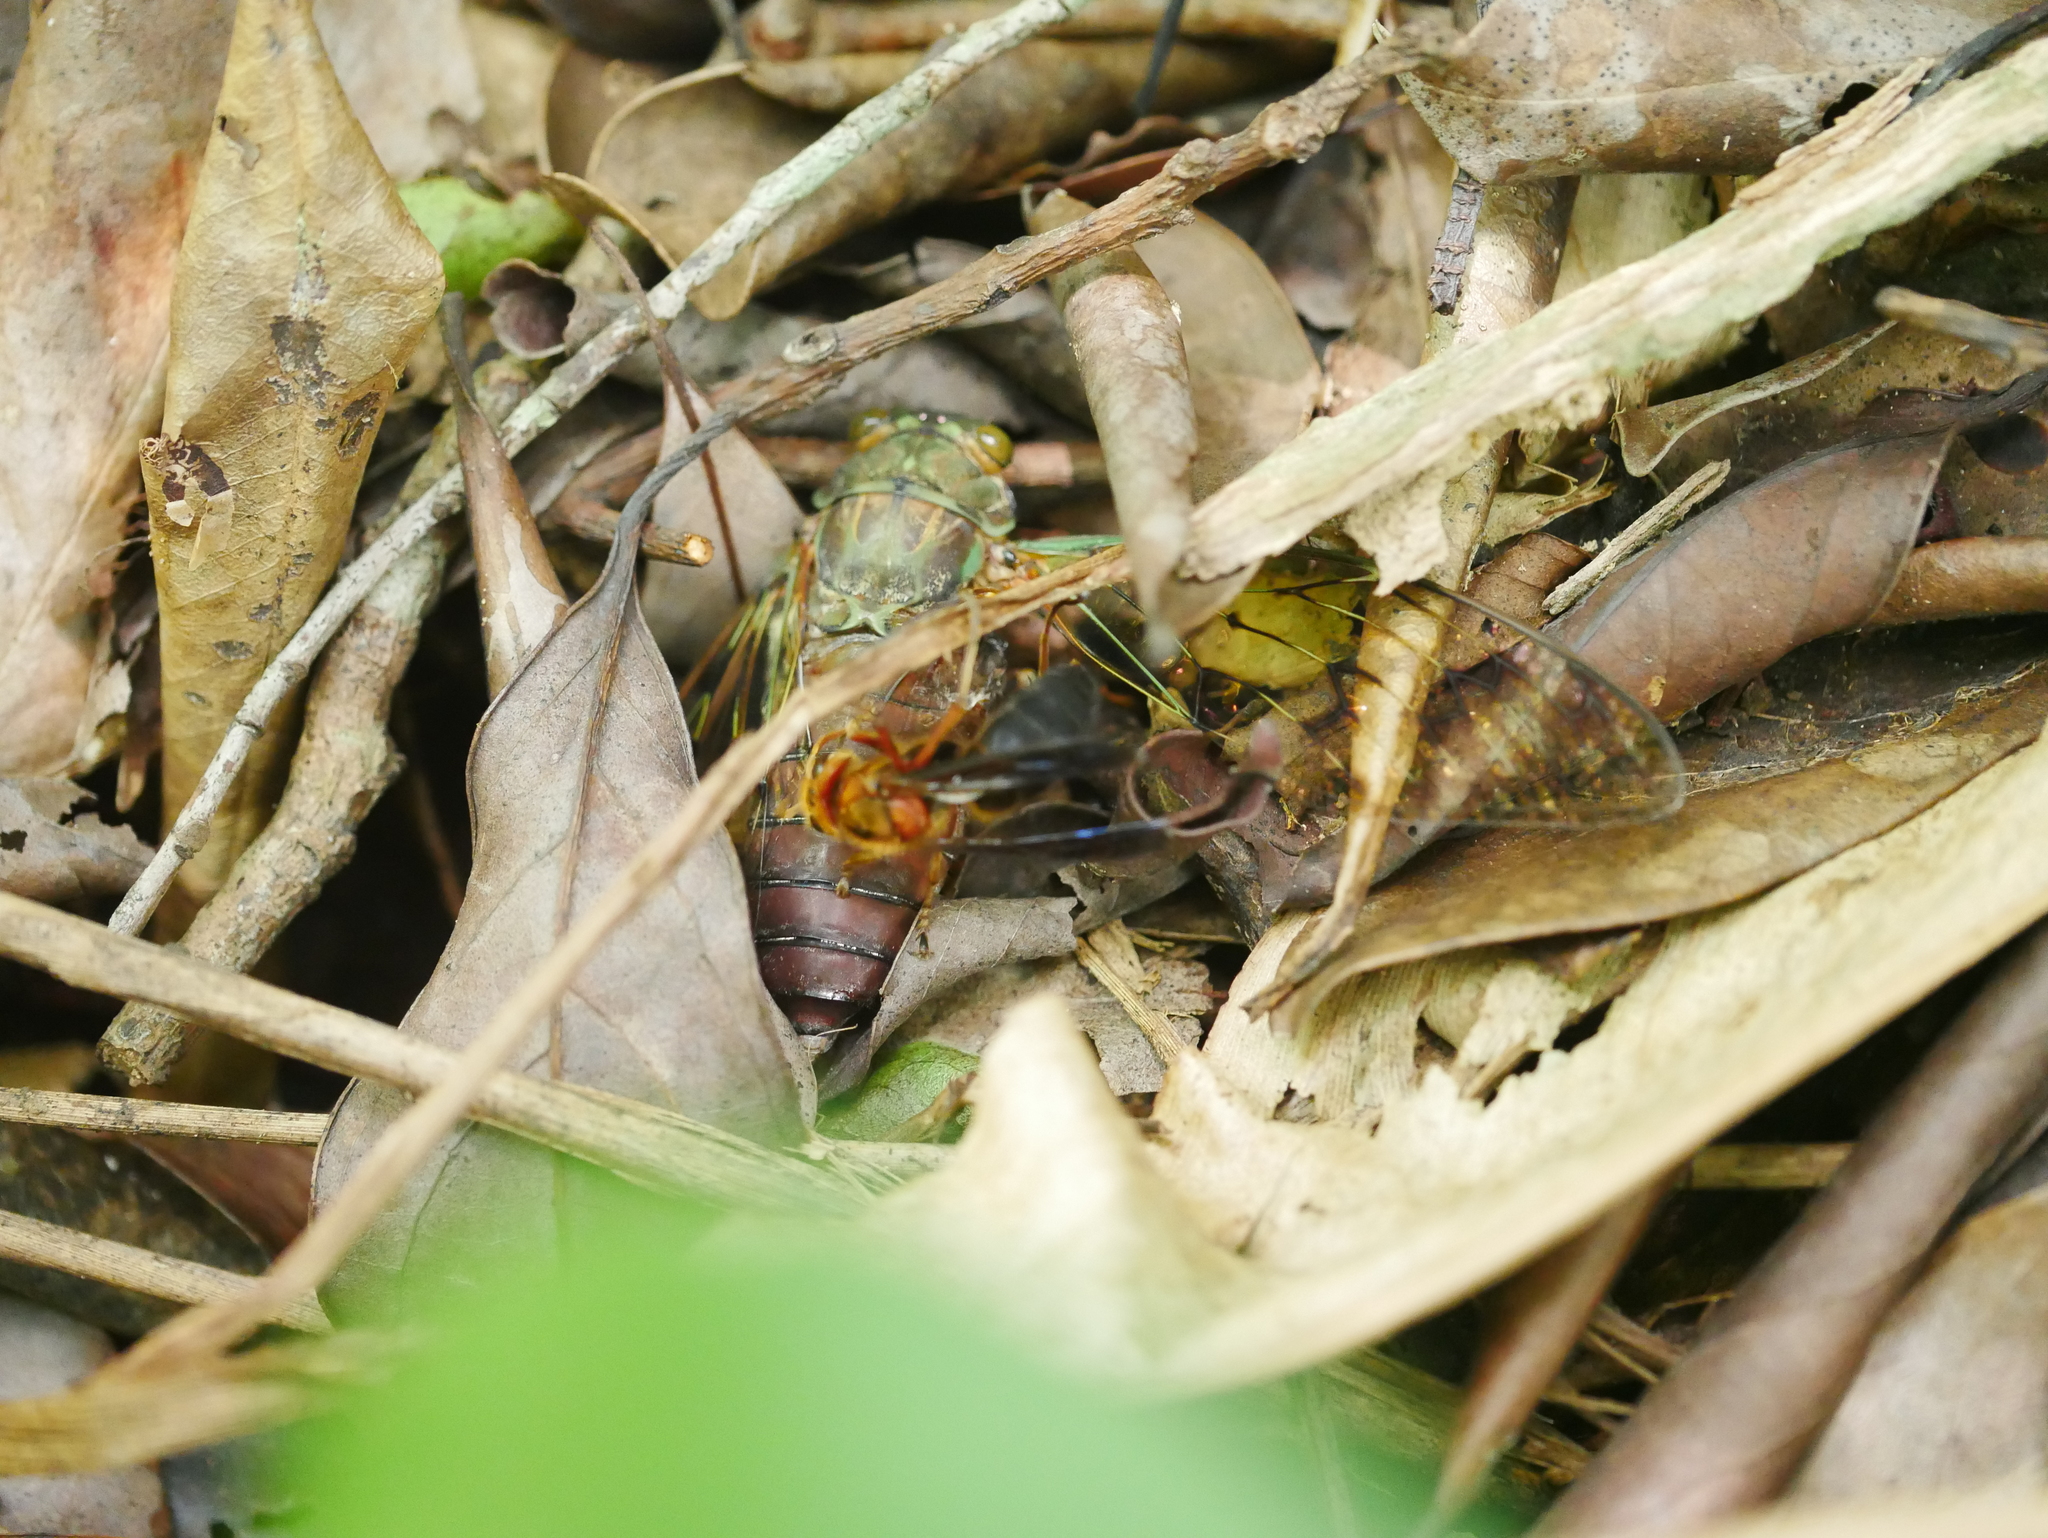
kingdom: Animalia
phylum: Arthropoda
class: Insecta
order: Hymenoptera
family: Vespidae
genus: Vespa
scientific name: Vespa basalis
